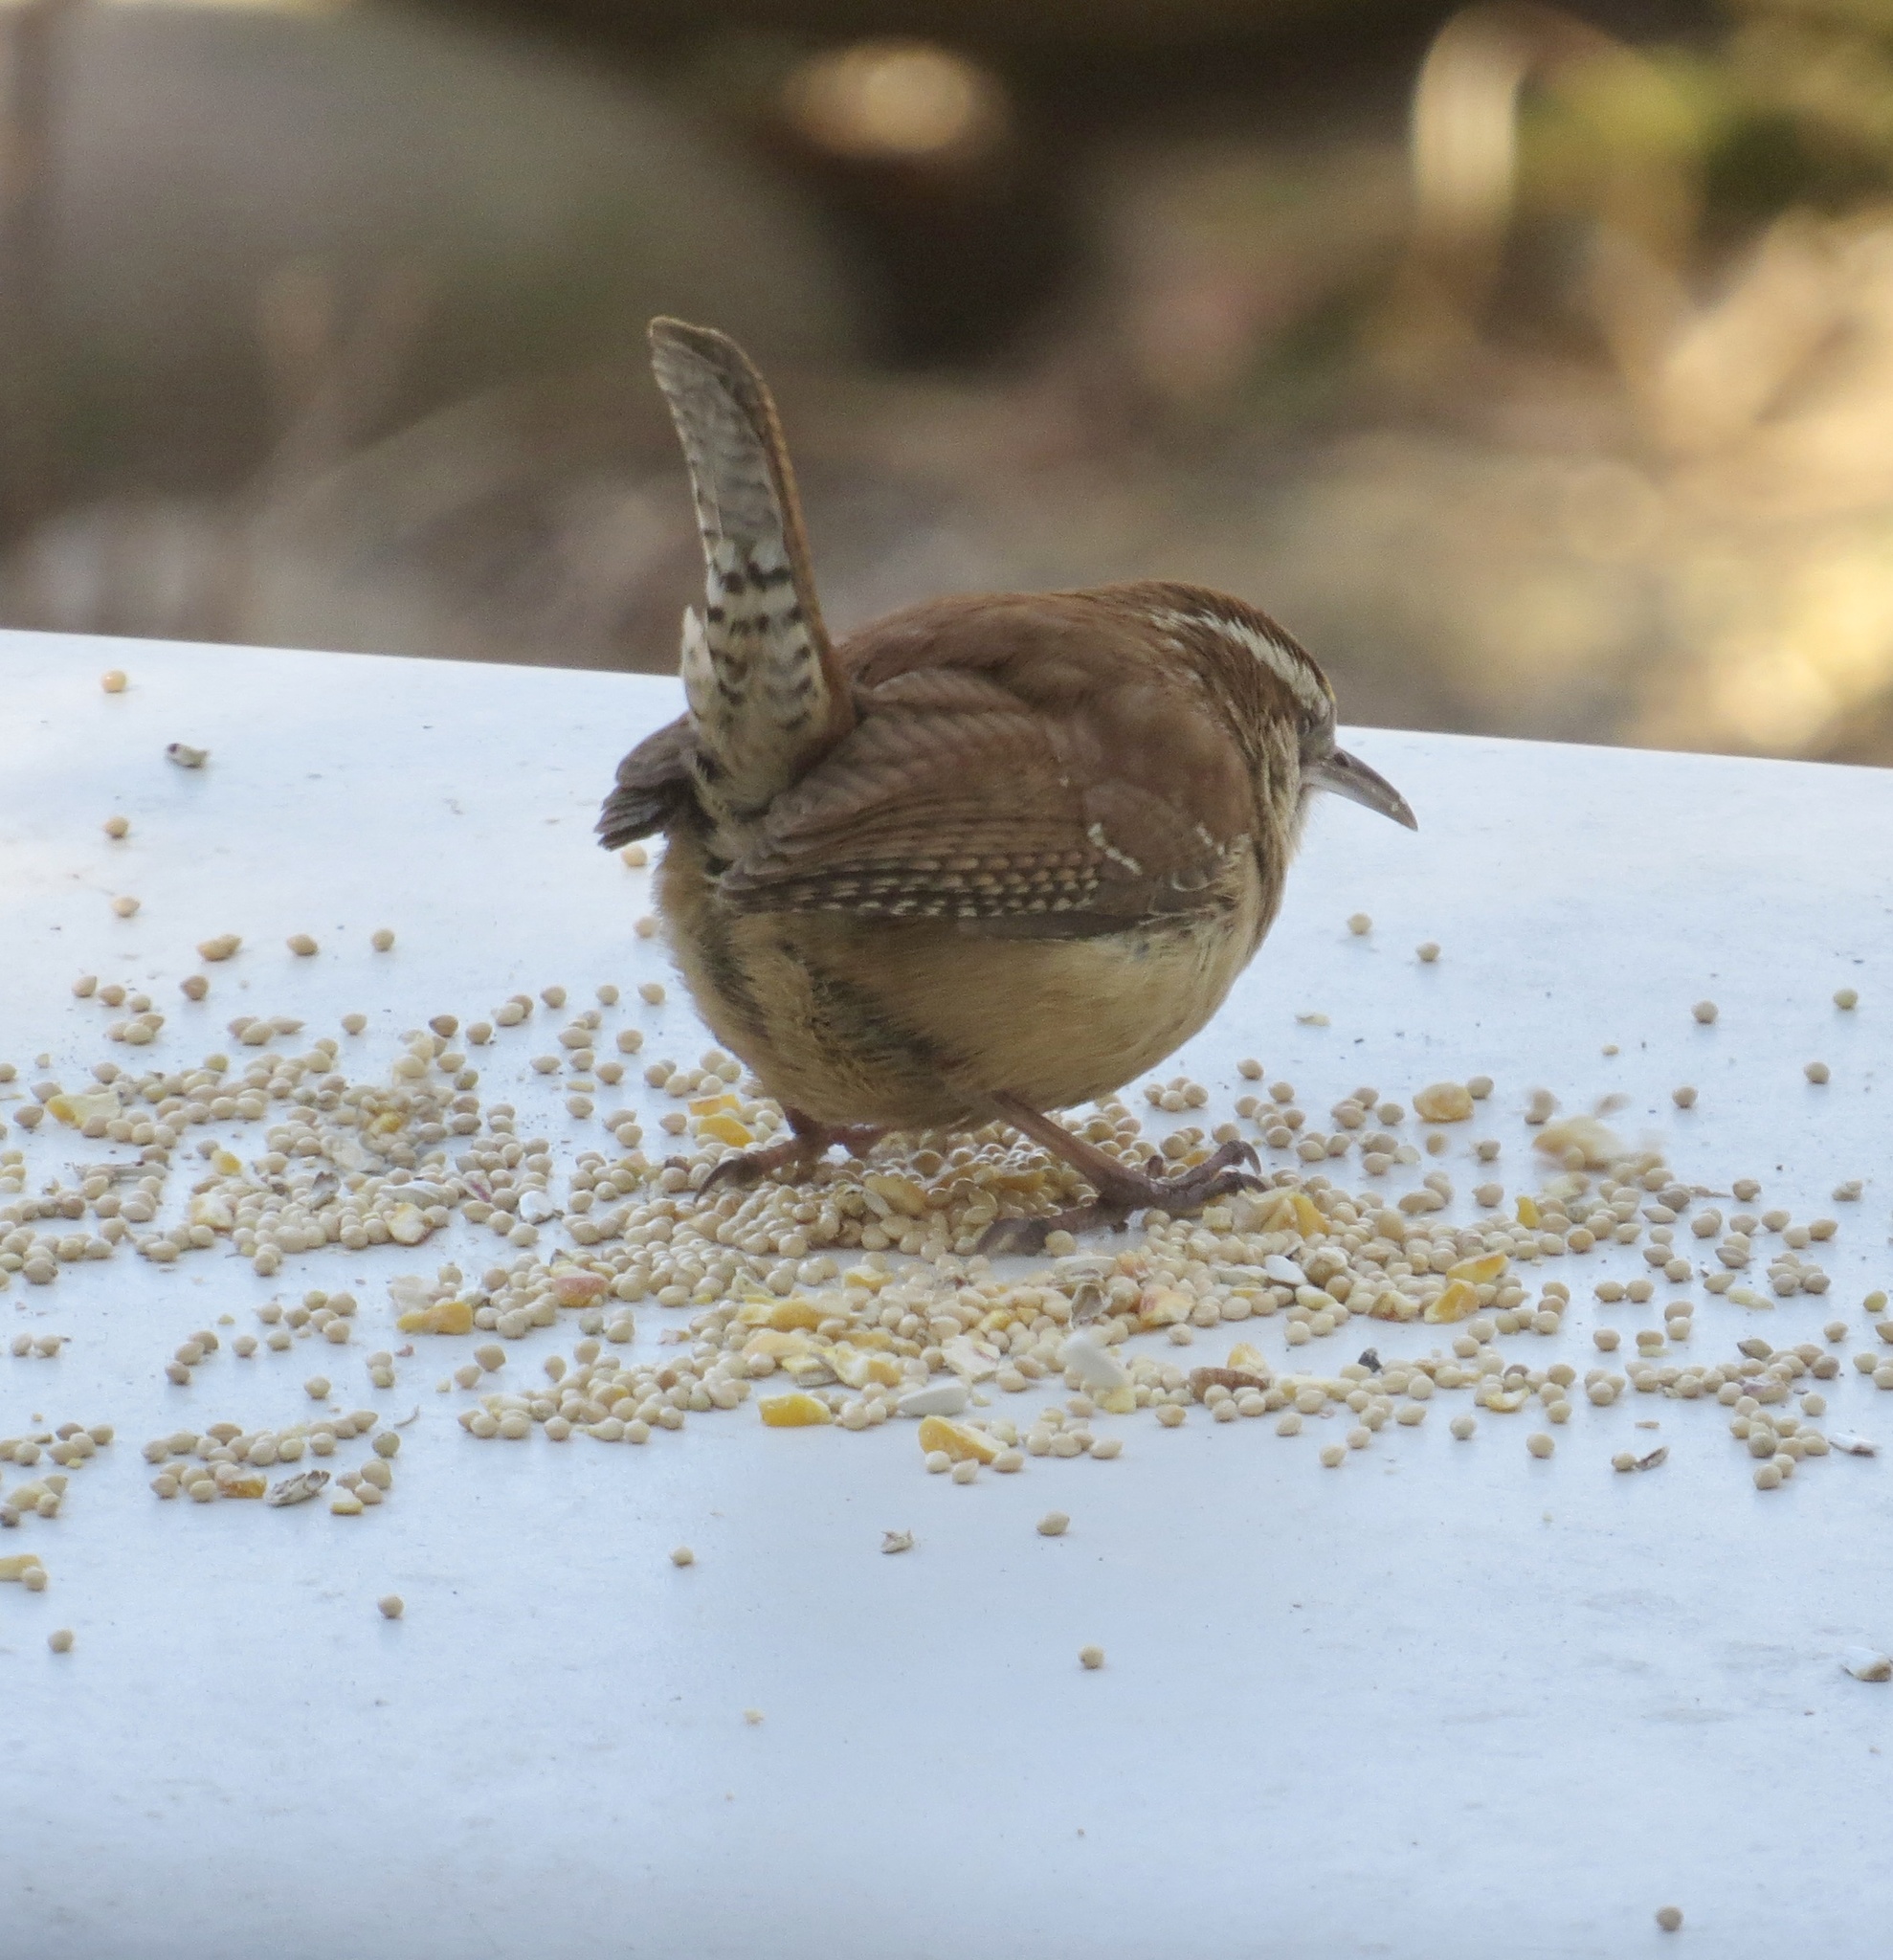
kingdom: Animalia
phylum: Chordata
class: Aves
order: Passeriformes
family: Troglodytidae
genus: Thryothorus
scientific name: Thryothorus ludovicianus
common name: Carolina wren
